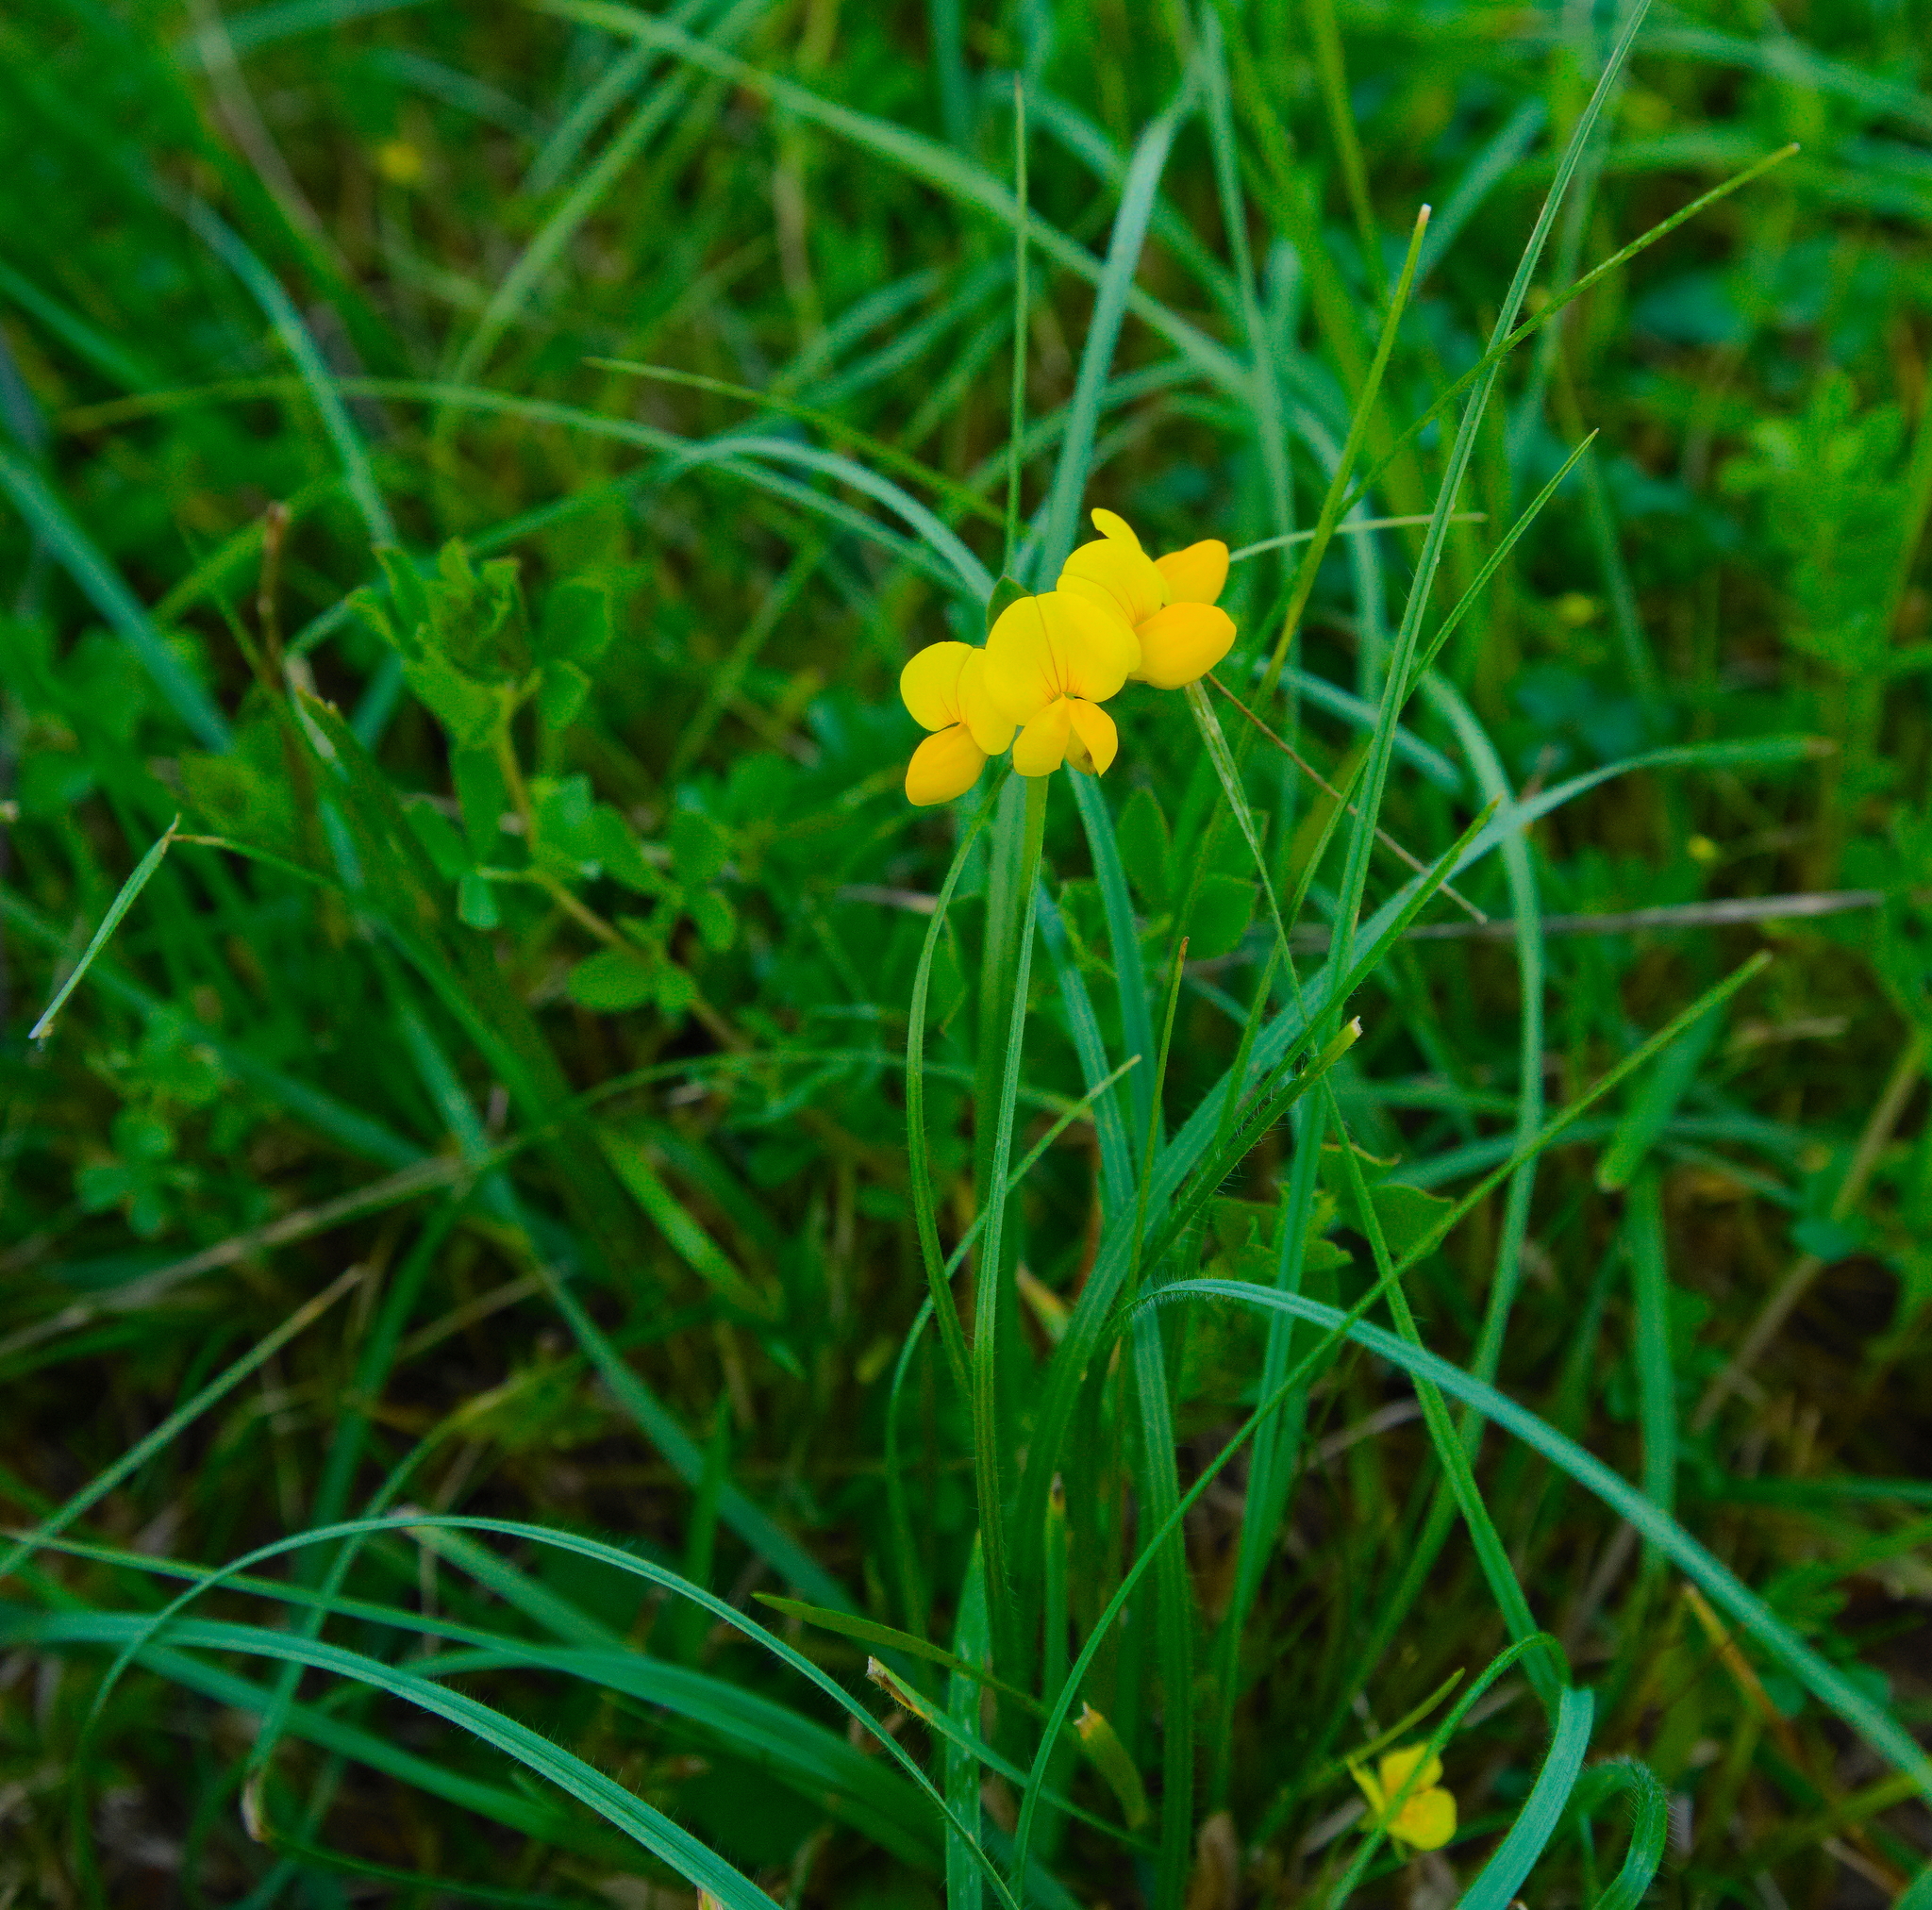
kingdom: Plantae
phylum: Tracheophyta
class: Magnoliopsida
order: Fabales
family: Fabaceae
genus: Lotus
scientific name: Lotus corniculatus
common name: Common bird's-foot-trefoil
